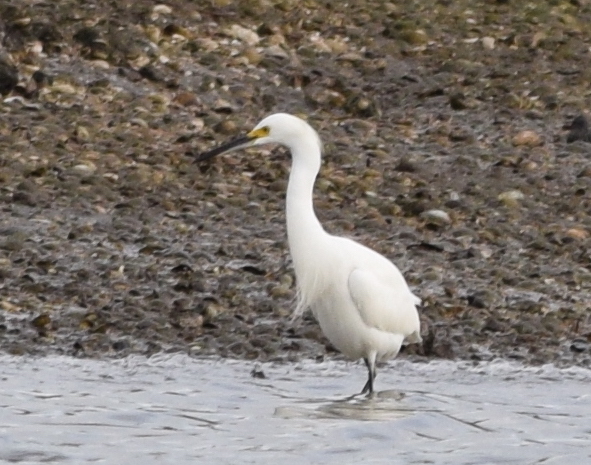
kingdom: Animalia
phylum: Chordata
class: Aves
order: Pelecaniformes
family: Ardeidae
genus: Egretta
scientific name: Egretta thula
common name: Snowy egret
